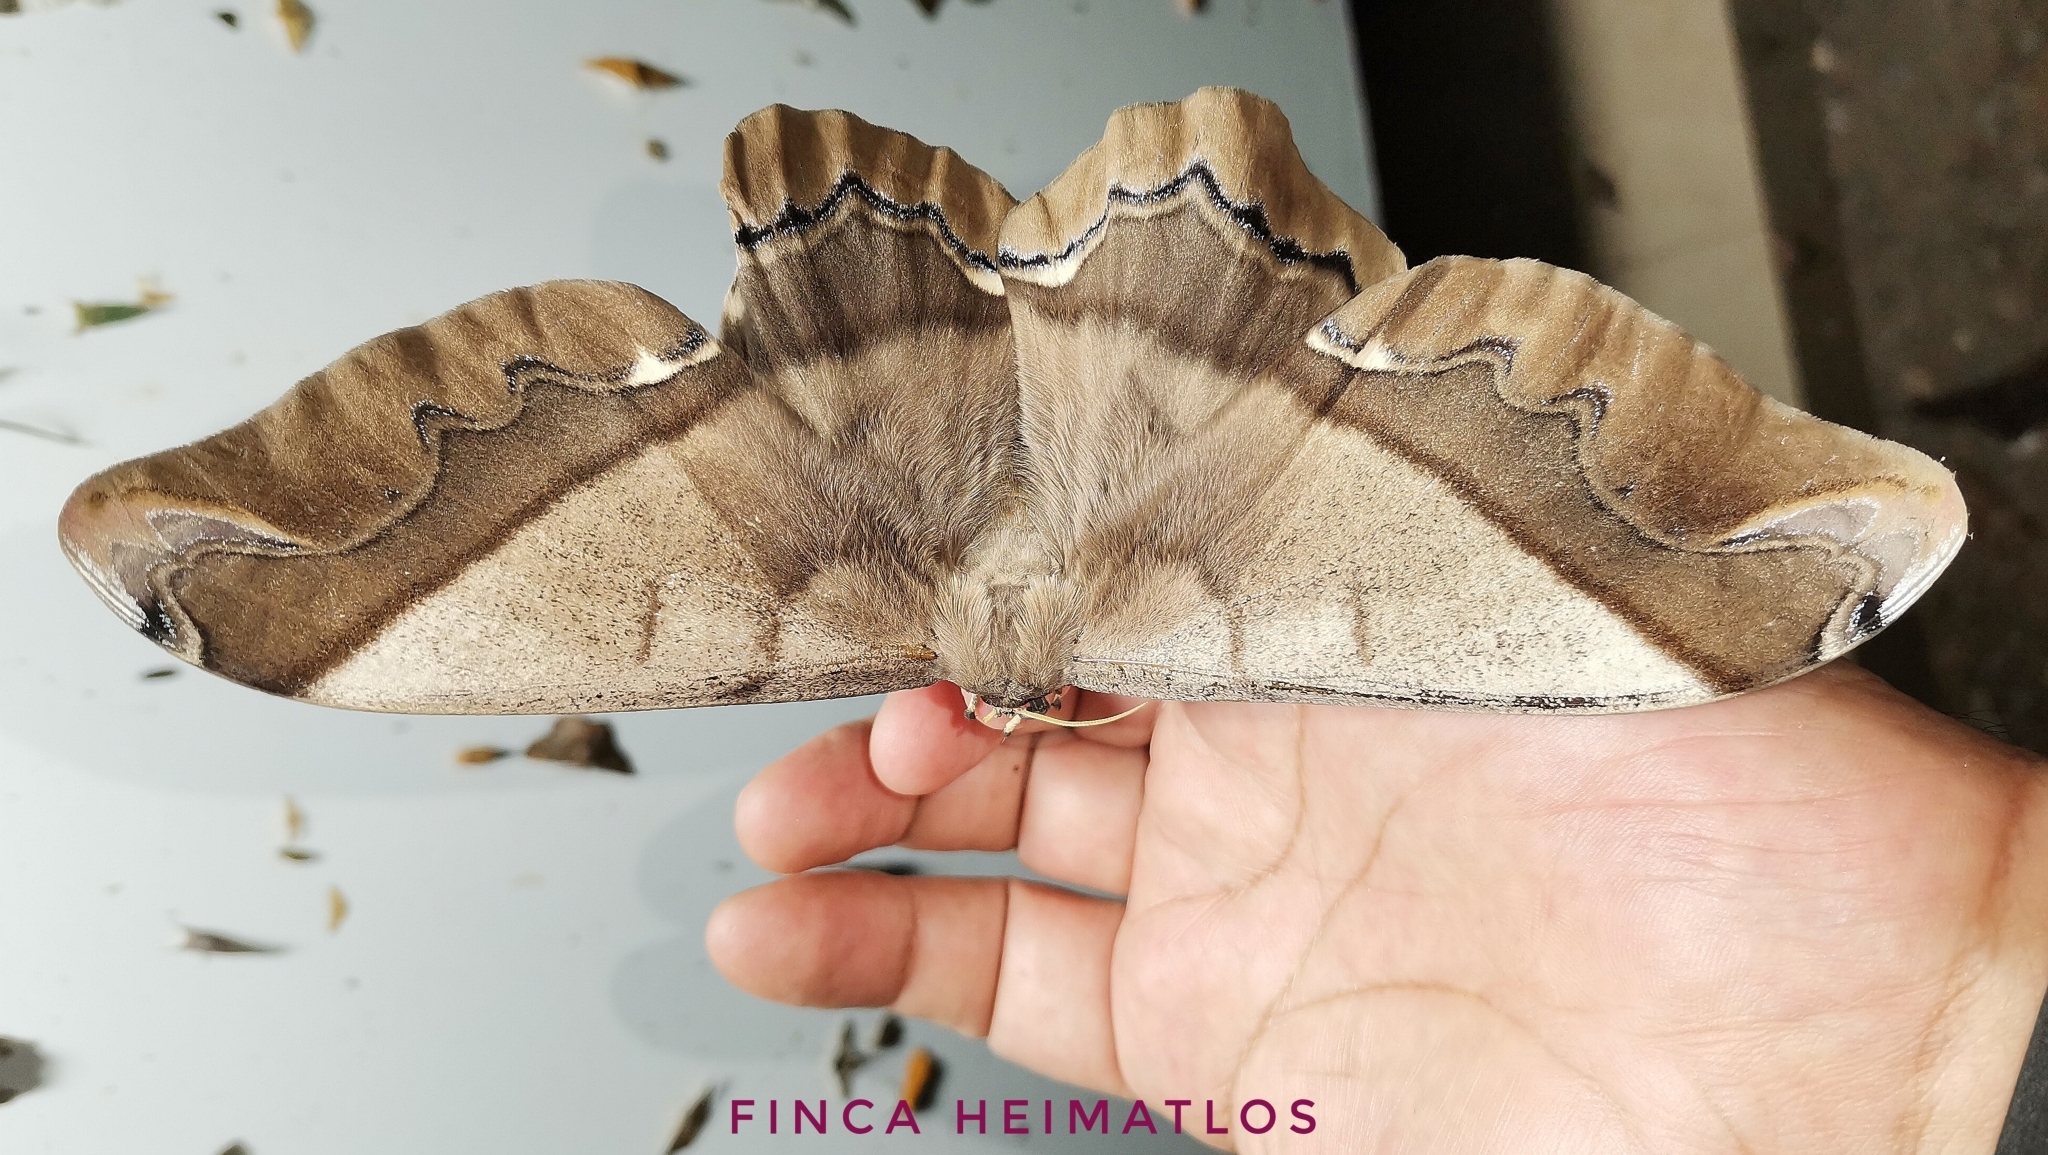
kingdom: Animalia
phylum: Arthropoda
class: Insecta
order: Lepidoptera
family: Saturniidae
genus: Arsenura
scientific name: Arsenura armida
